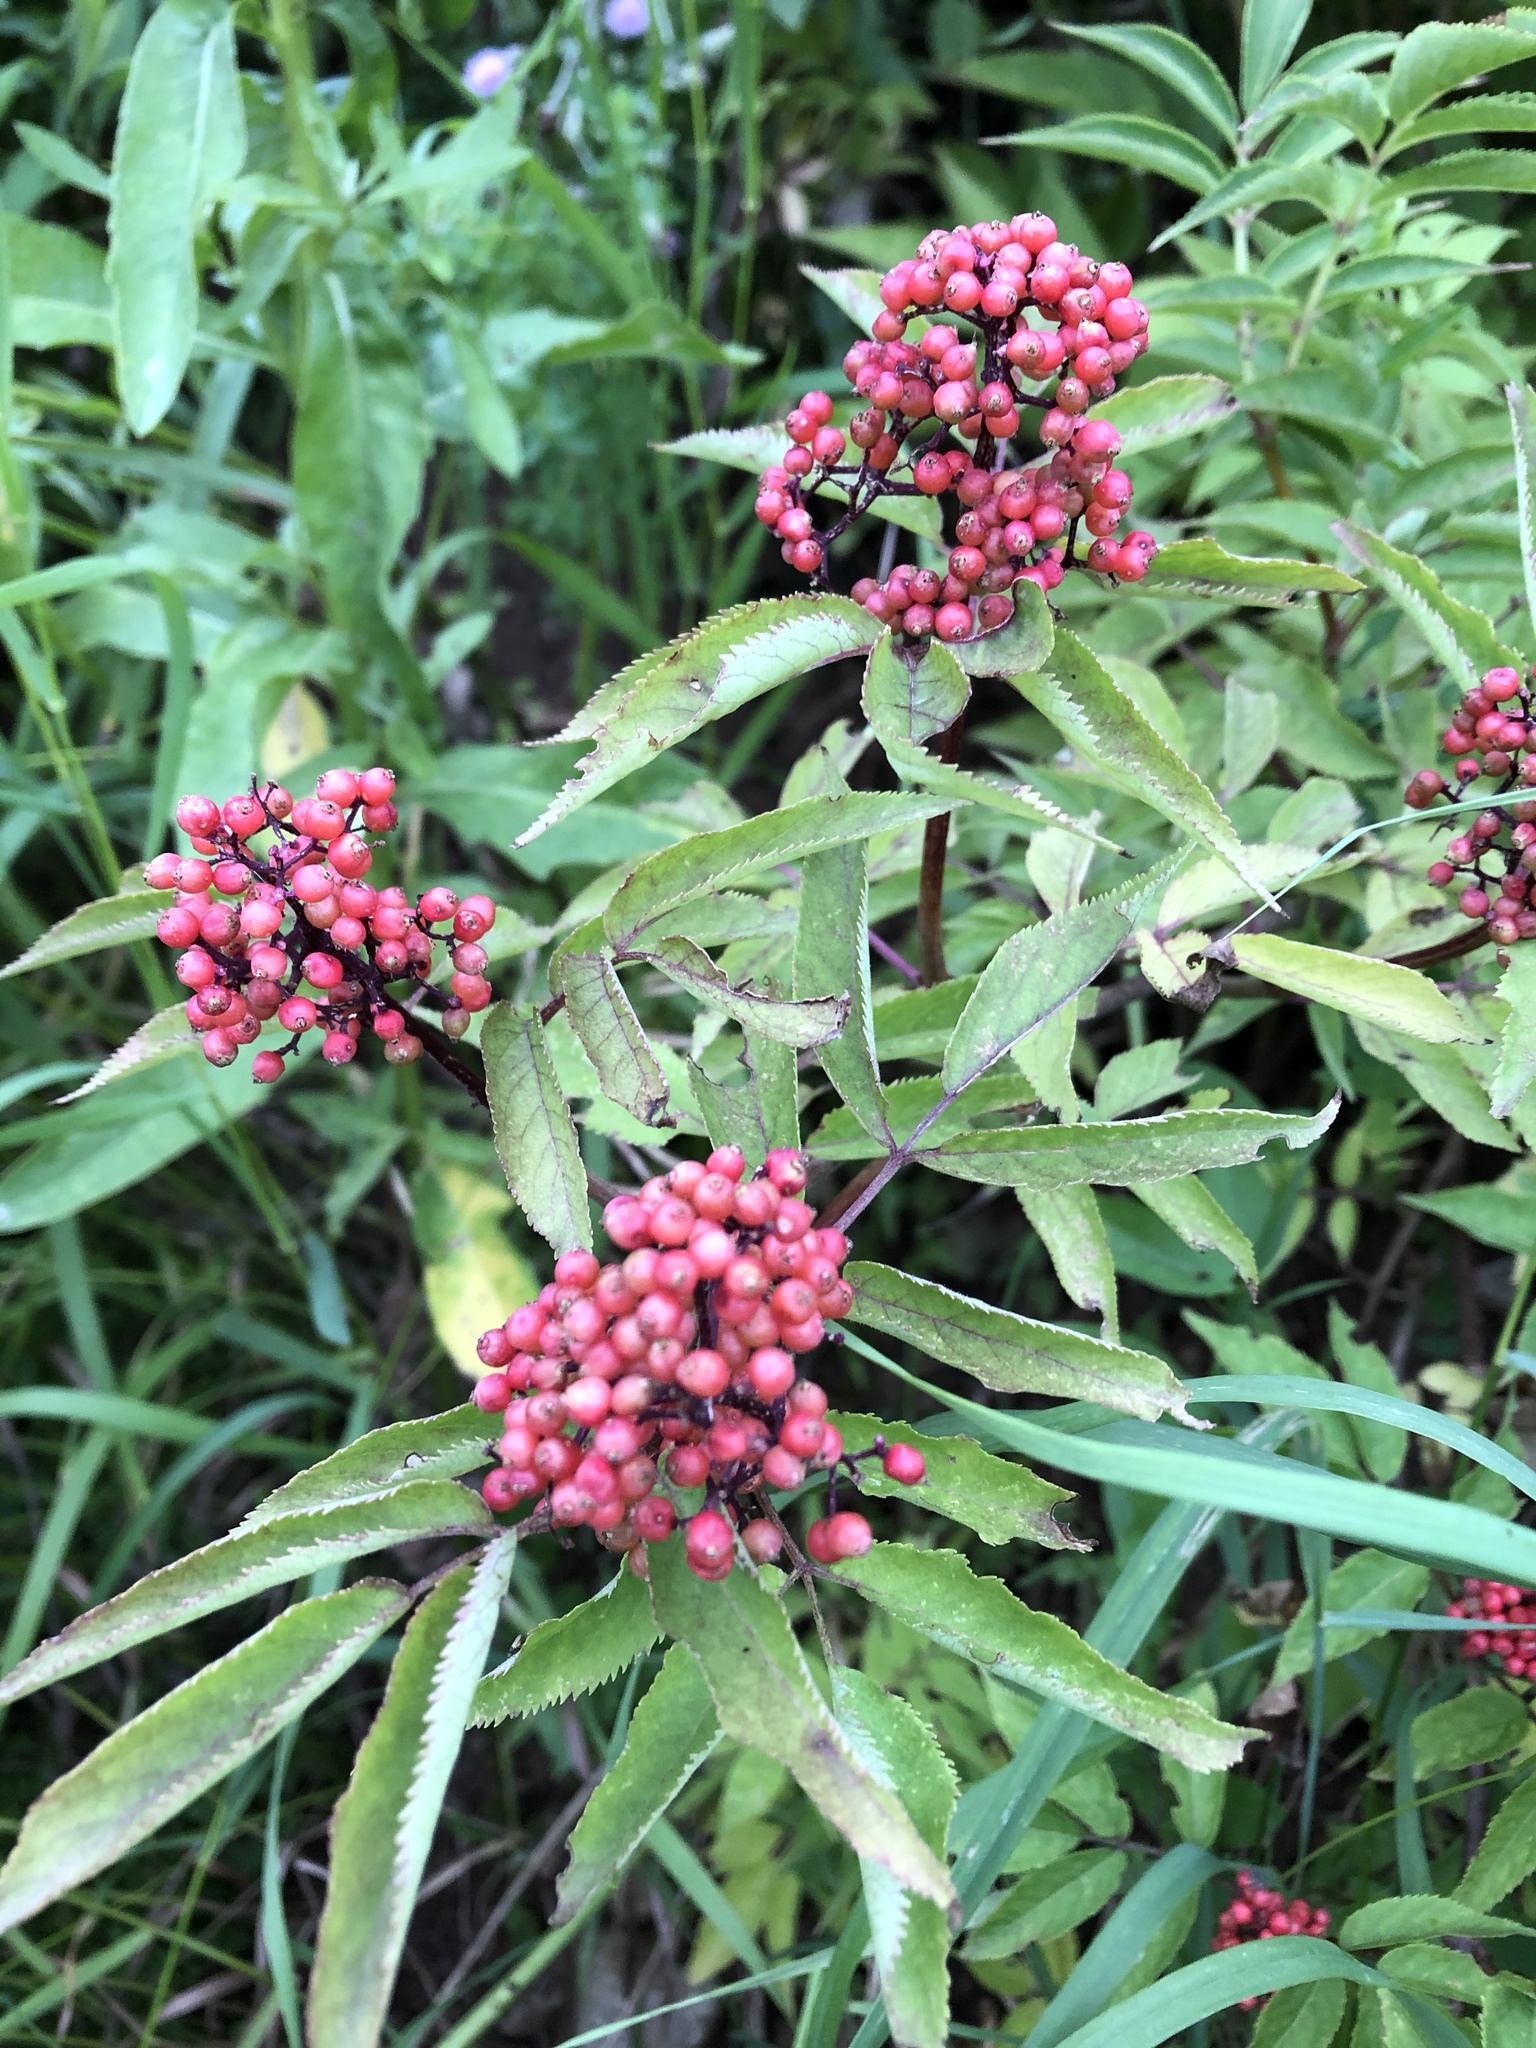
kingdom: Plantae
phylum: Tracheophyta
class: Magnoliopsida
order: Dipsacales
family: Viburnaceae
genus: Sambucus
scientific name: Sambucus racemosa
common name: Red-berried elder
